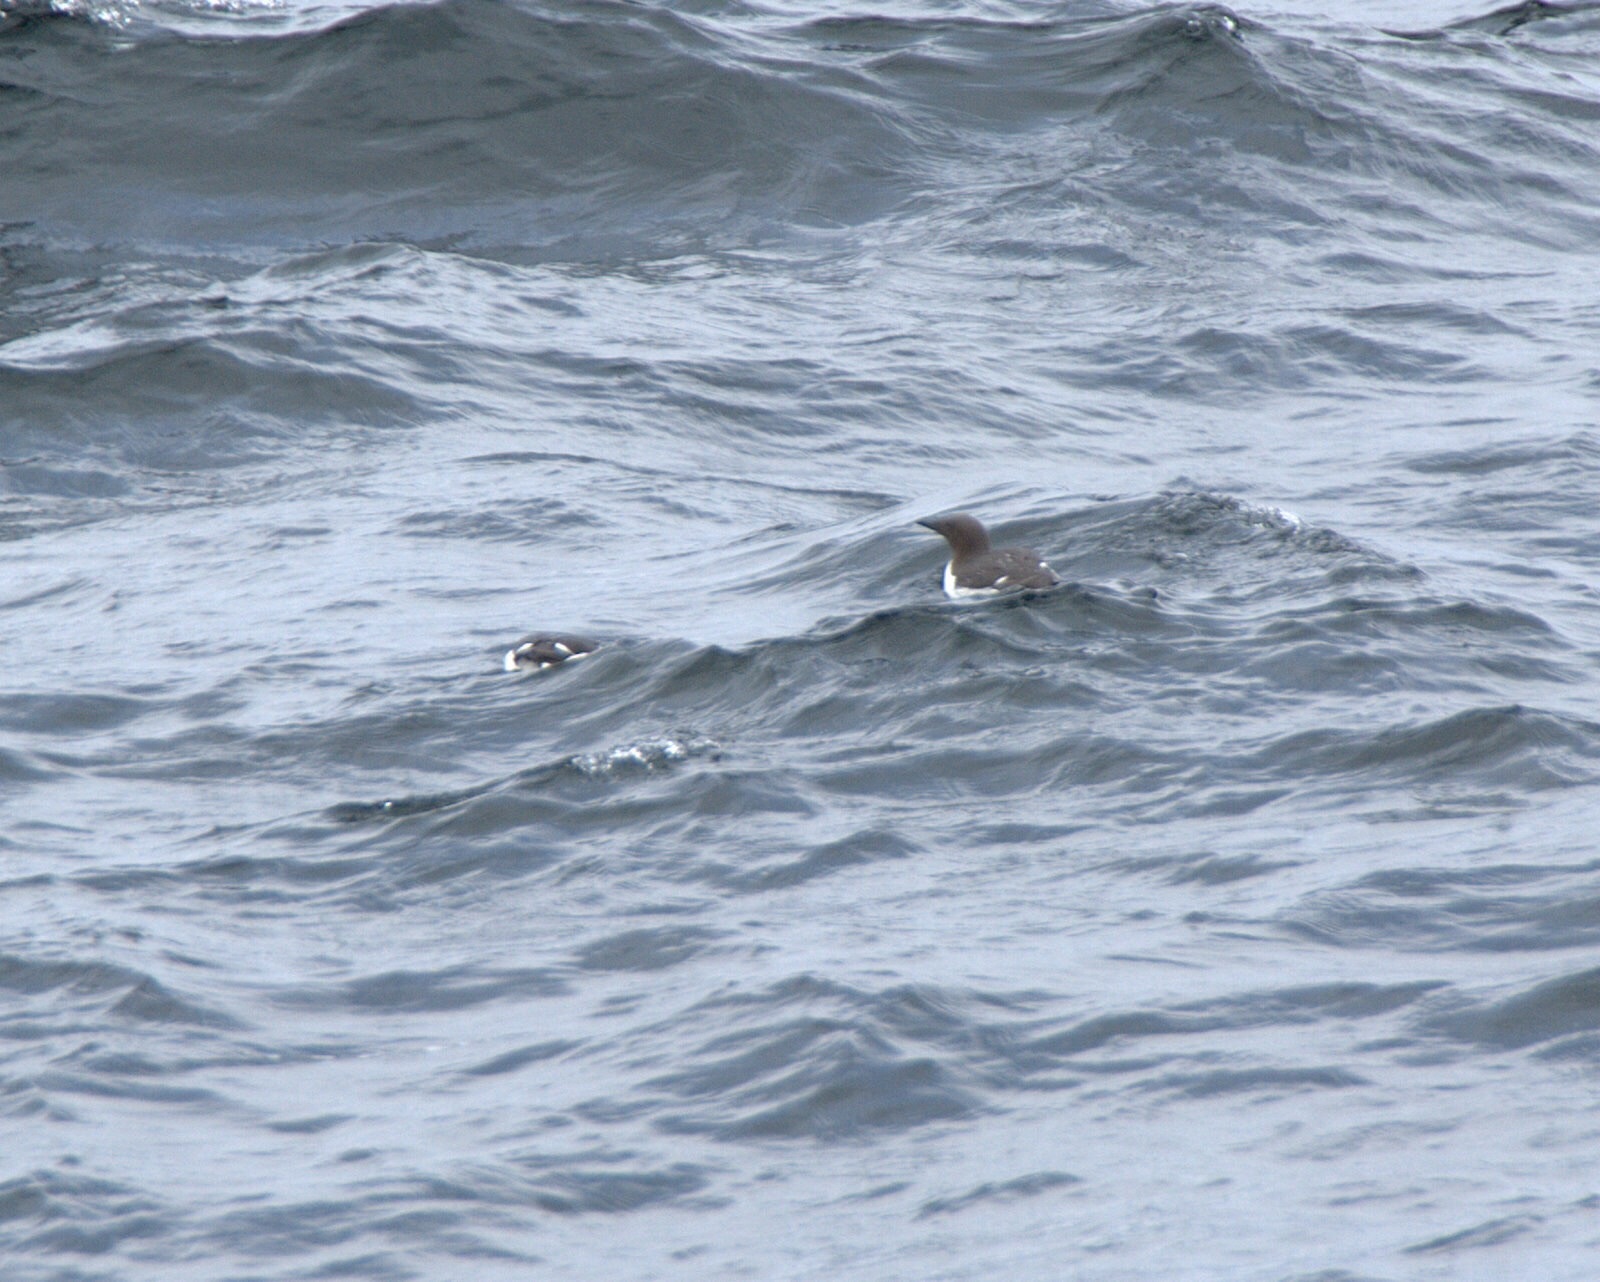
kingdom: Animalia
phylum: Chordata
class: Aves
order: Charadriiformes
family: Alcidae
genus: Uria
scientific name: Uria aalge
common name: Common murre
